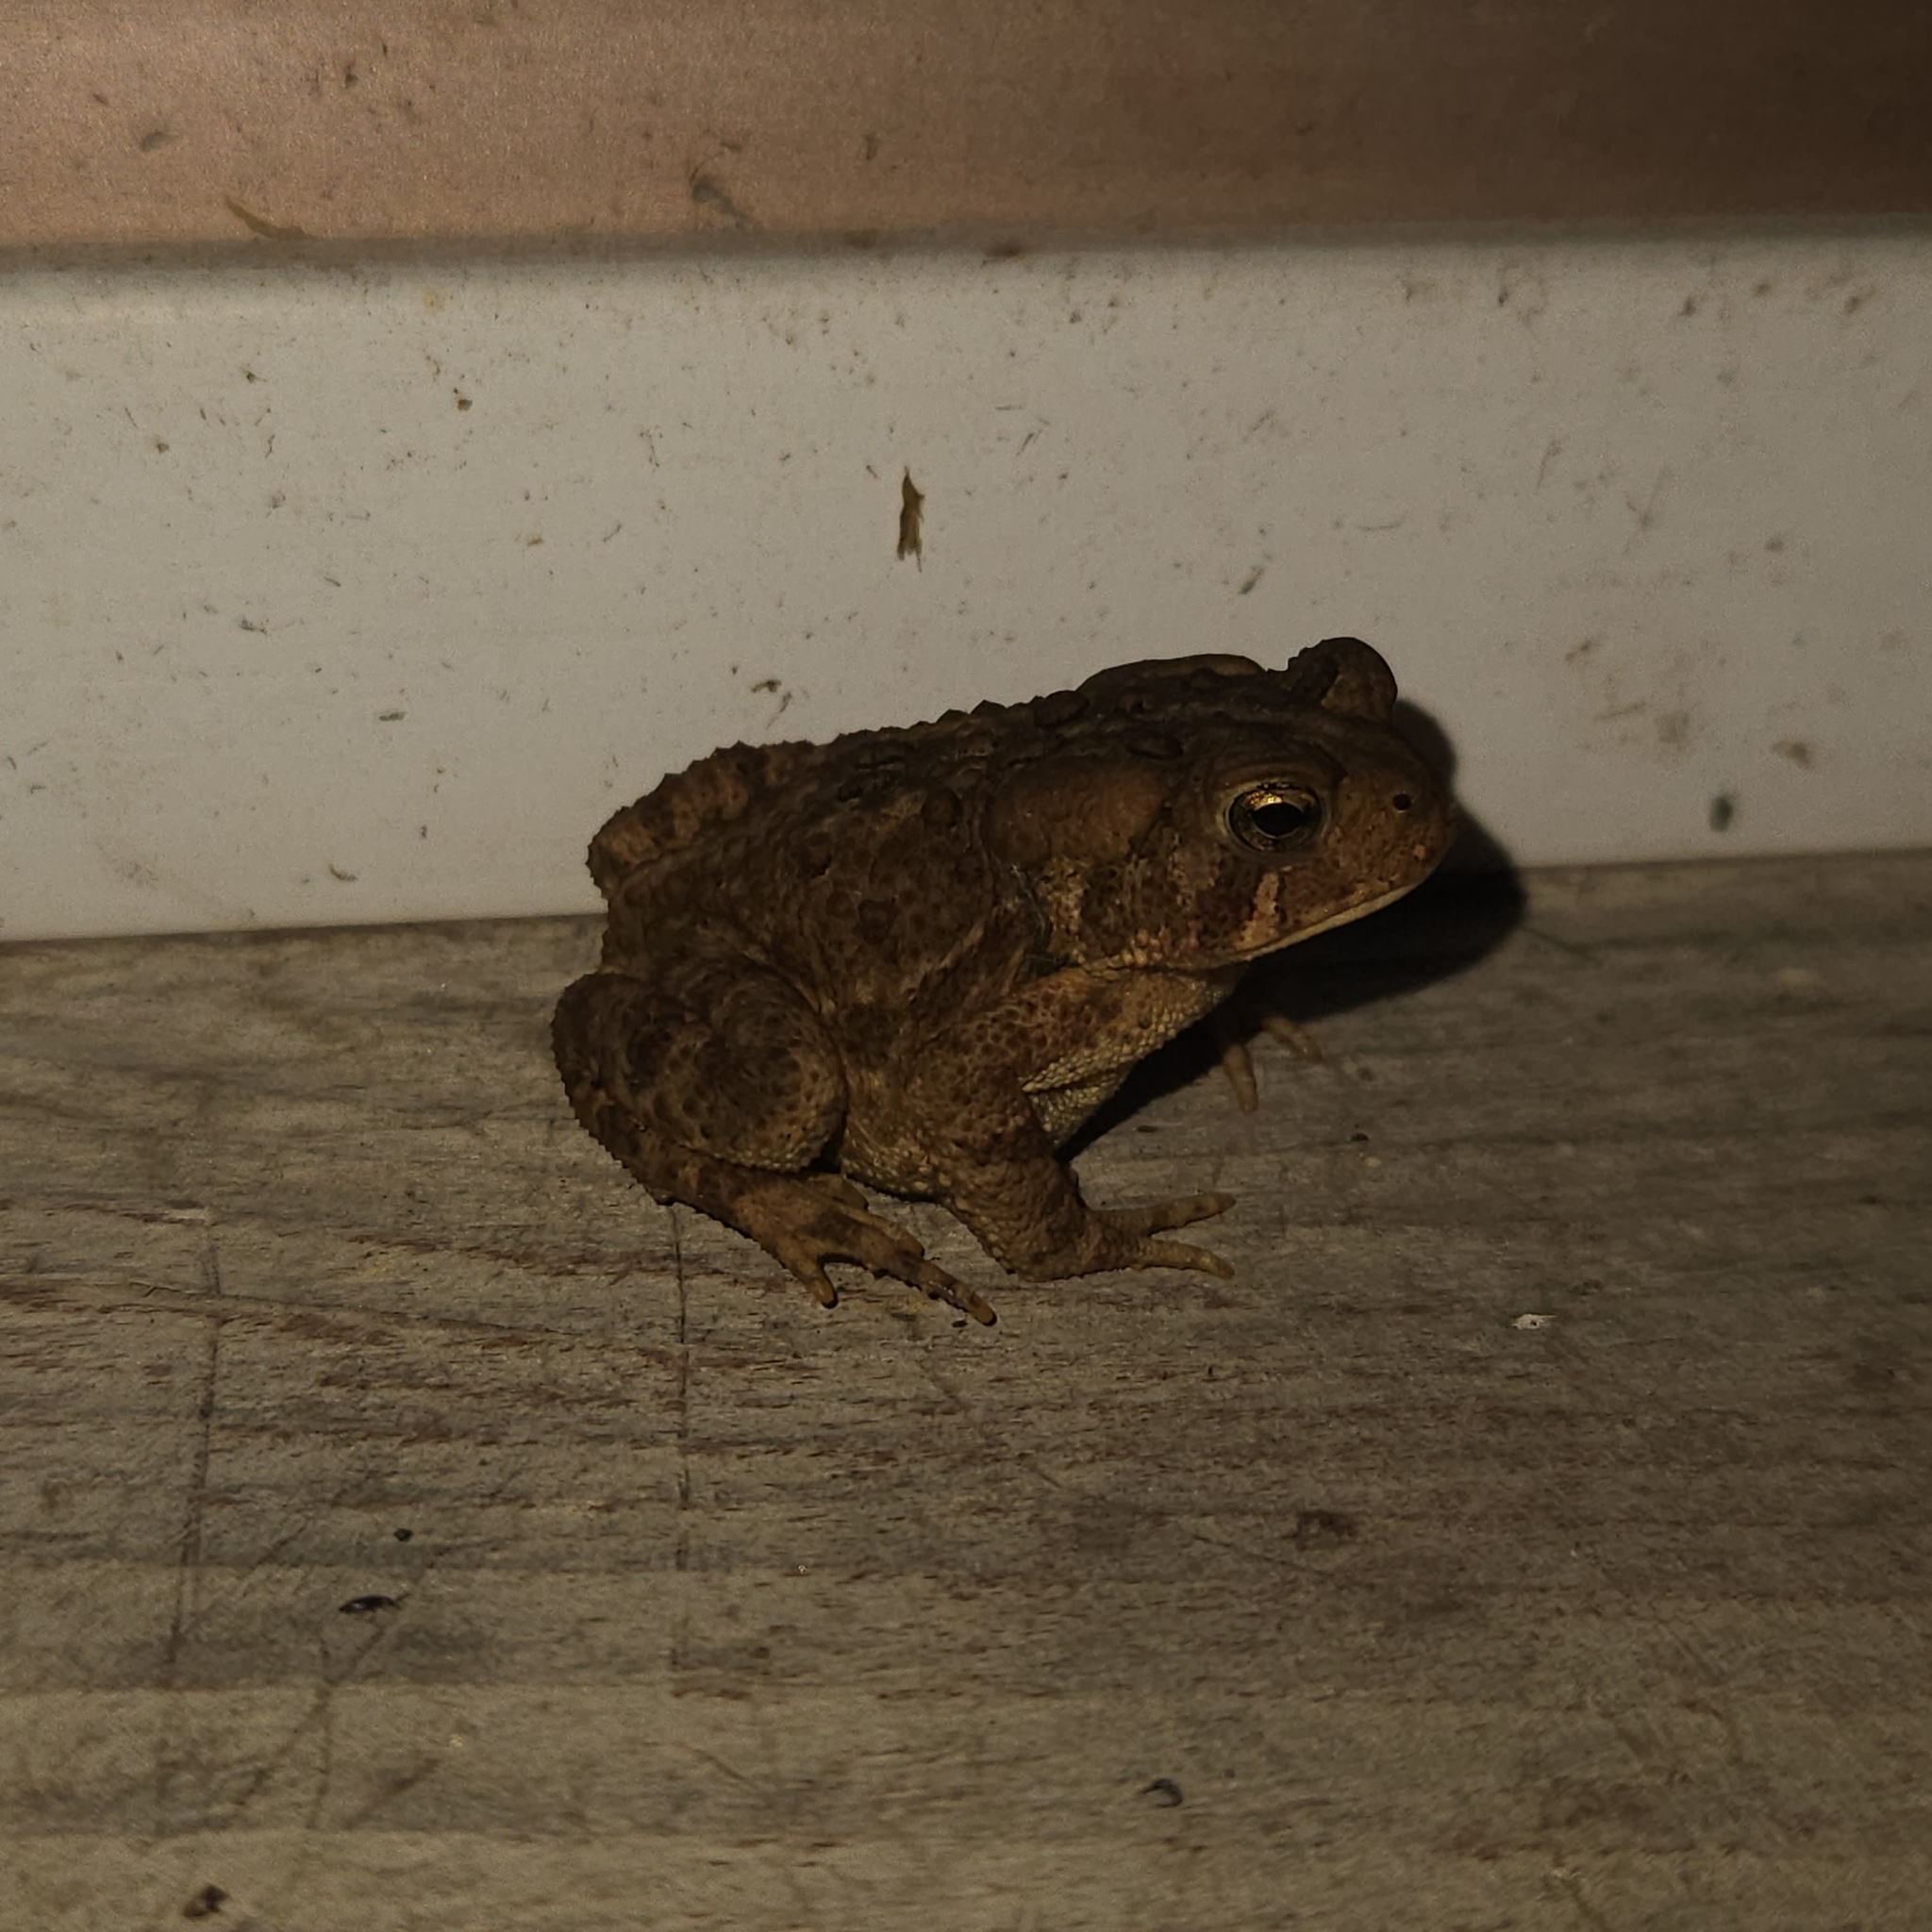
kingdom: Animalia
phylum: Chordata
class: Amphibia
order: Anura
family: Bufonidae
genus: Anaxyrus
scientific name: Anaxyrus americanus
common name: American toad
